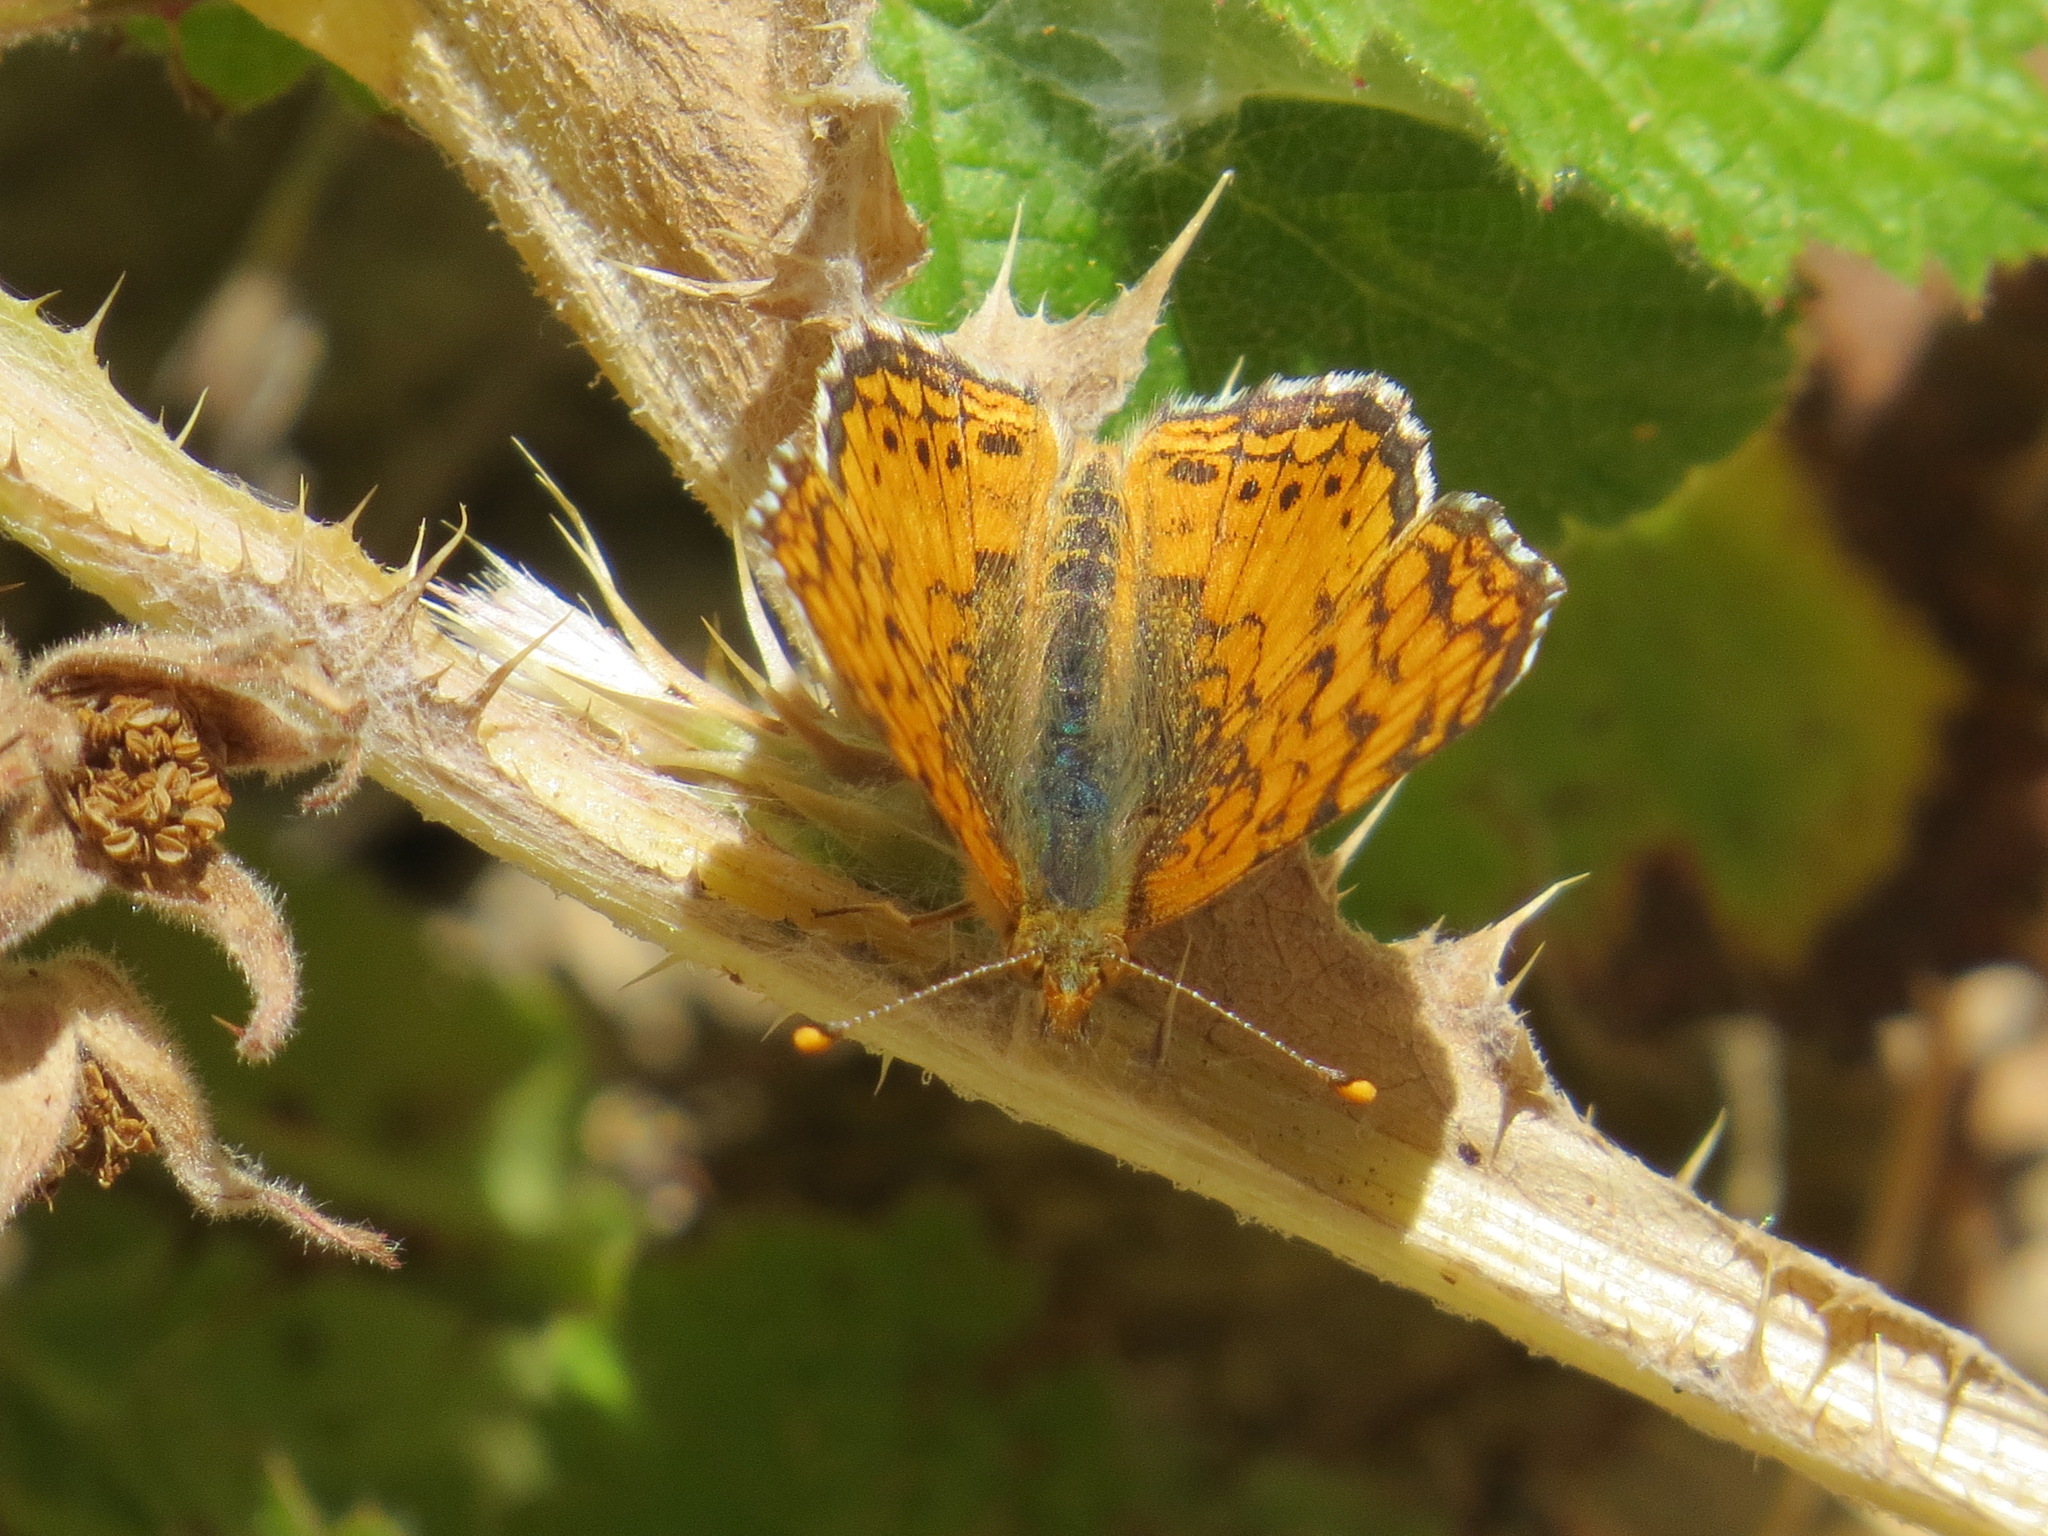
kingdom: Animalia
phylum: Arthropoda
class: Insecta
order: Lepidoptera
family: Nymphalidae
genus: Eresia
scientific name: Eresia aveyrona
